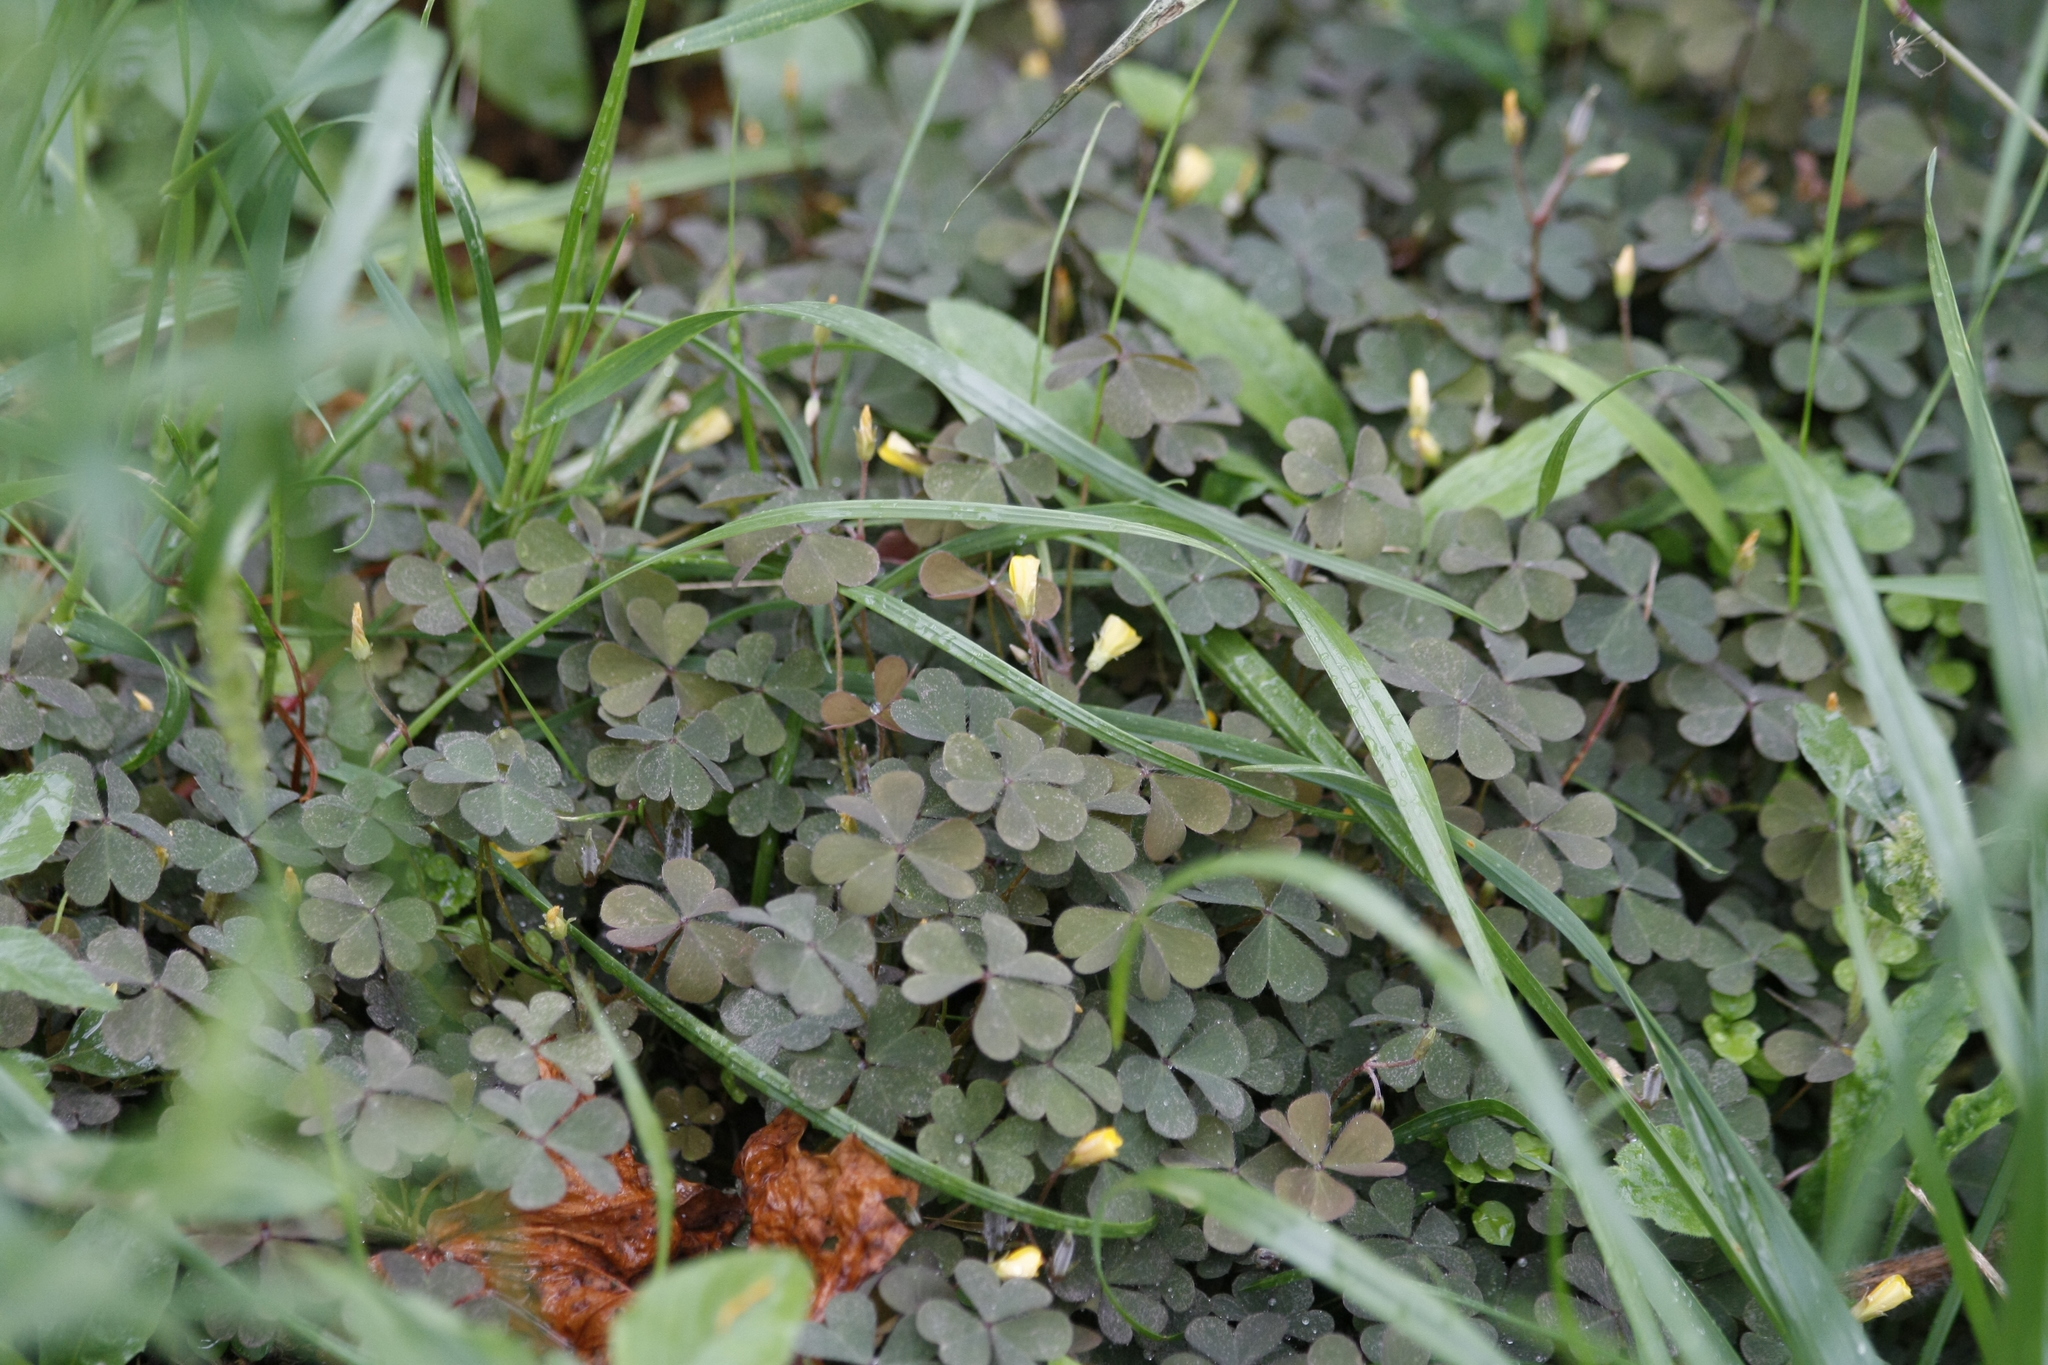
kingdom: Plantae
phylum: Tracheophyta
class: Magnoliopsida
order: Oxalidales
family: Oxalidaceae
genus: Oxalis
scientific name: Oxalis corniculata
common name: Procumbent yellow-sorrel
